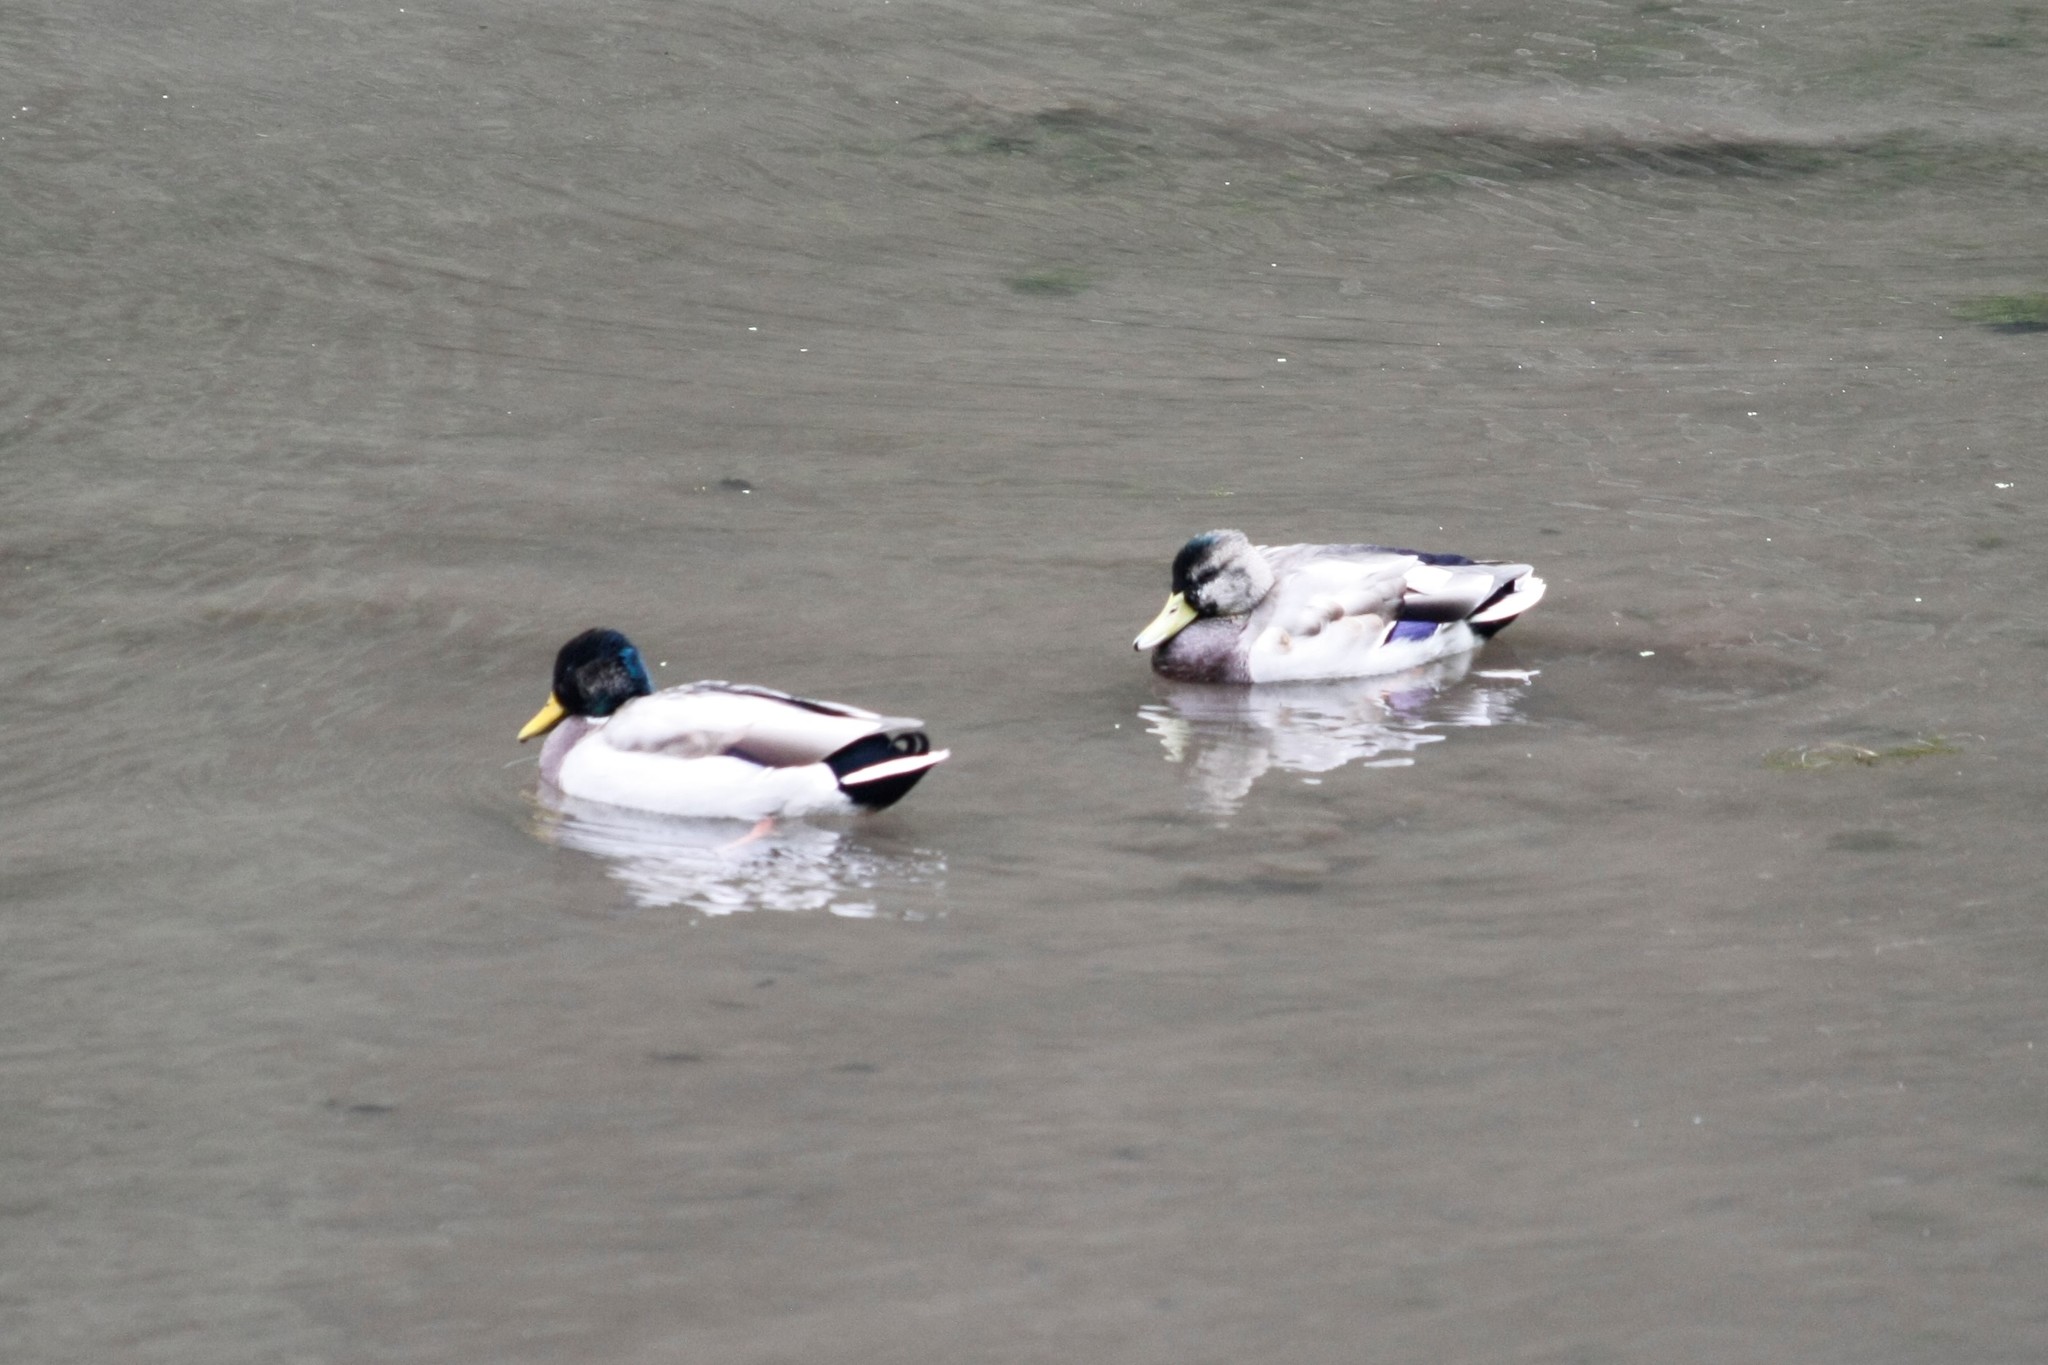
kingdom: Animalia
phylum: Chordata
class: Aves
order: Anseriformes
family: Anatidae
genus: Anas
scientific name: Anas platyrhynchos
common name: Mallard
